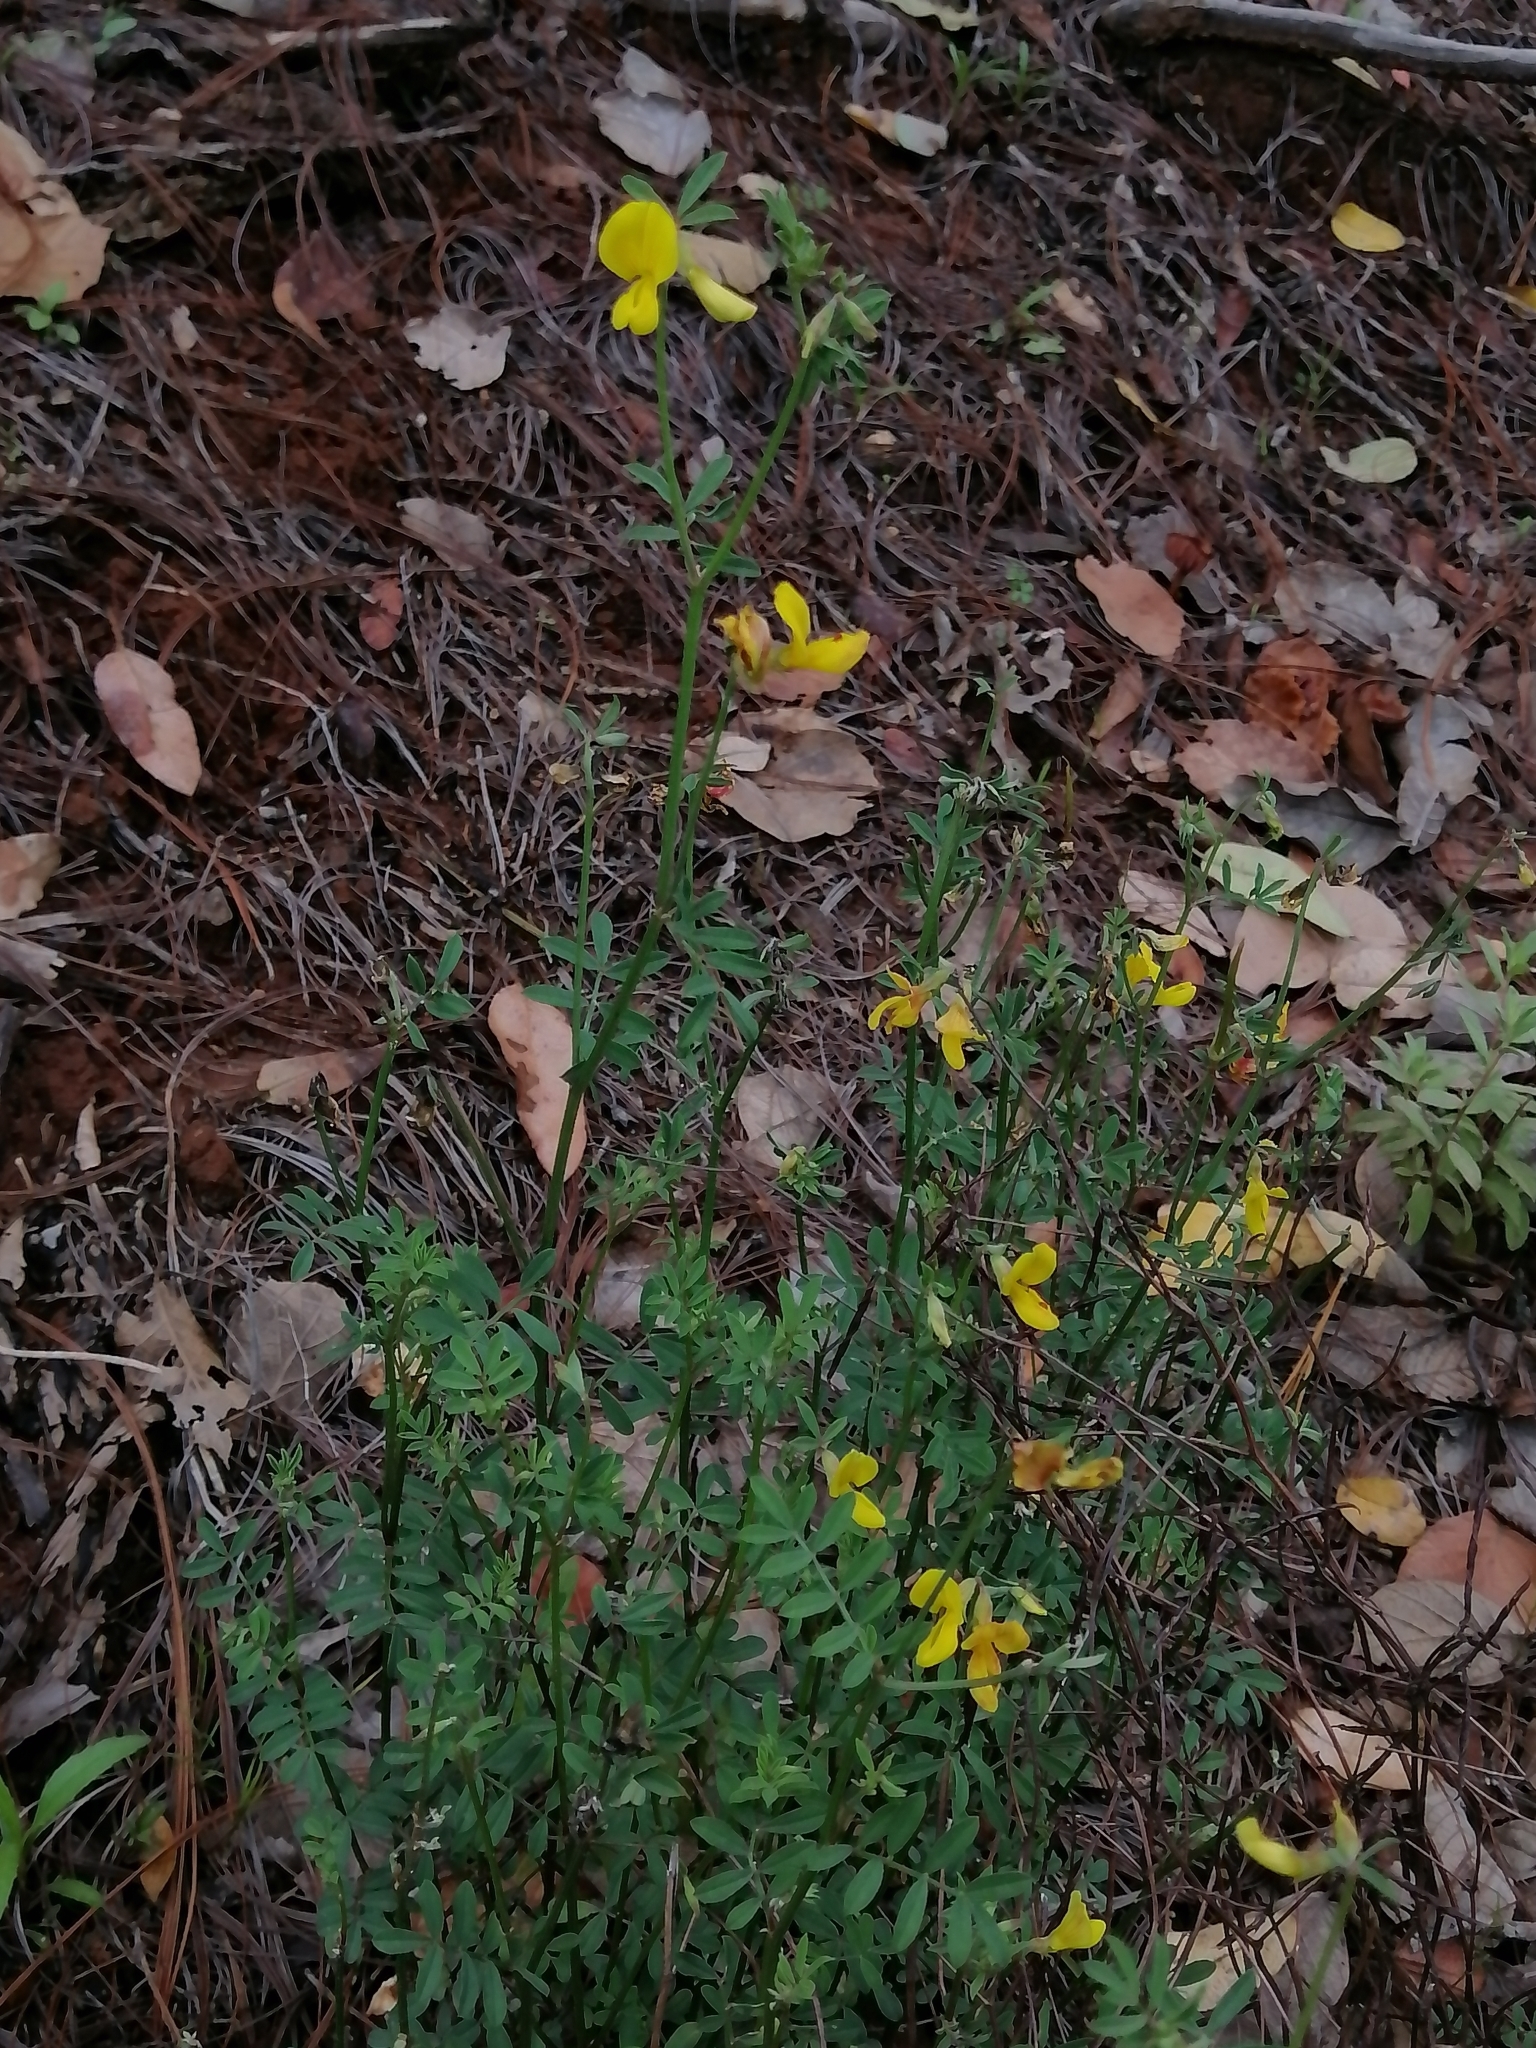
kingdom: Plantae
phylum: Tracheophyta
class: Magnoliopsida
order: Fabales
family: Fabaceae
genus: Acmispon
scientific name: Acmispon oroboides
